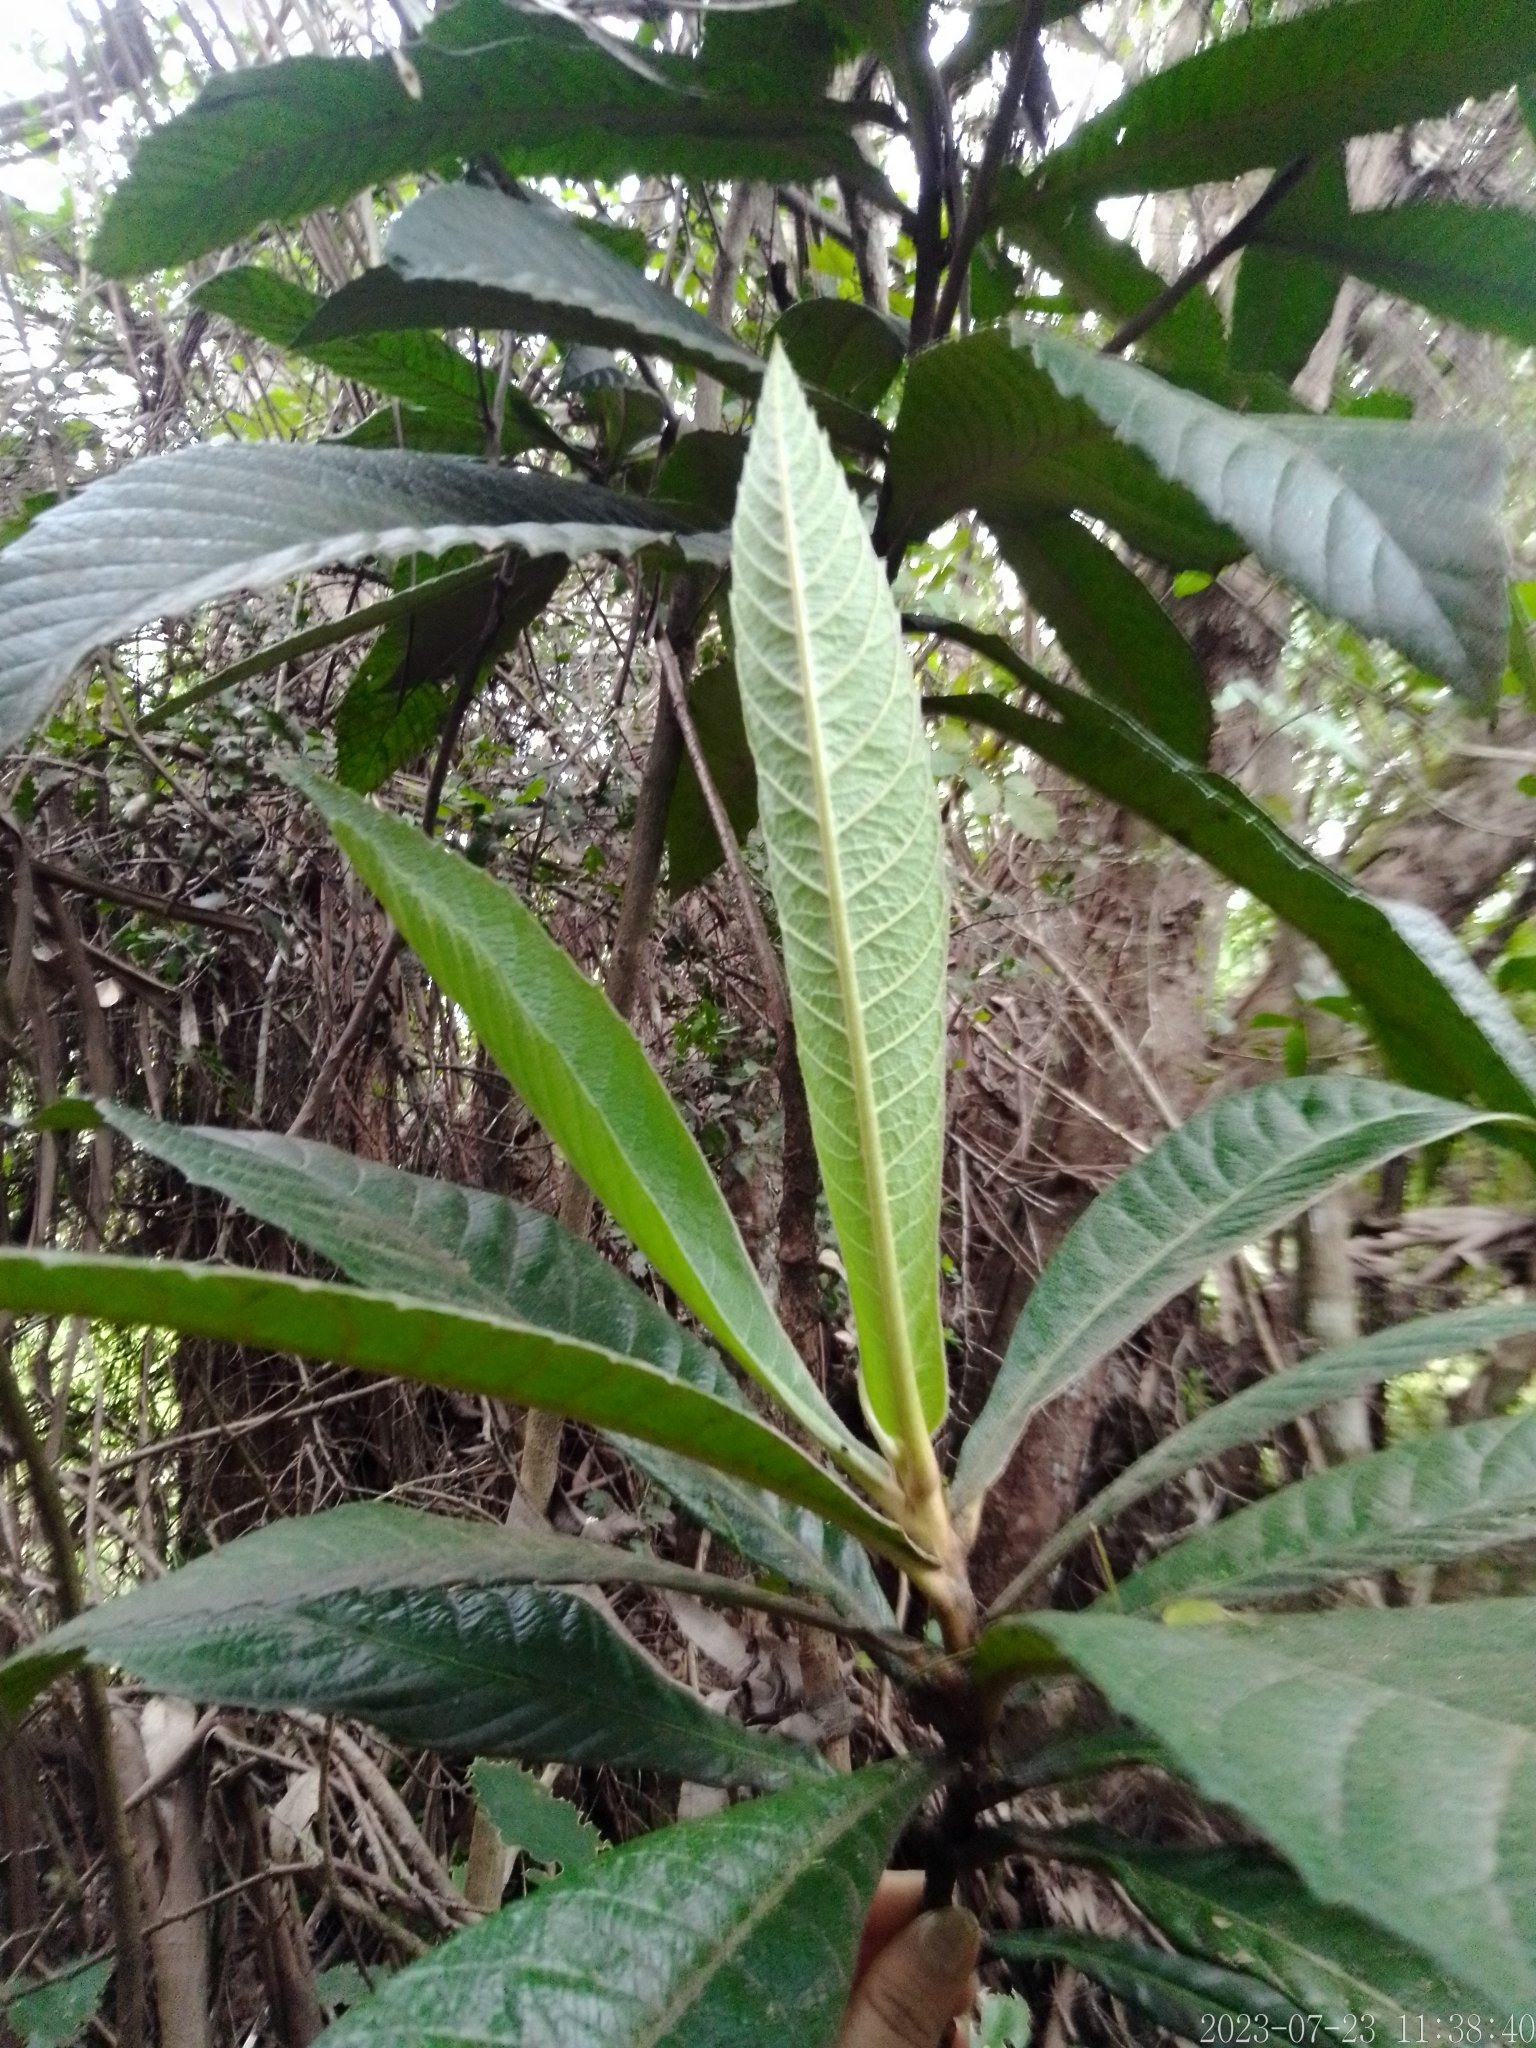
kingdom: Plantae
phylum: Tracheophyta
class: Magnoliopsida
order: Rosales
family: Rosaceae
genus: Rhaphiolepis
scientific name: Rhaphiolepis bibas
